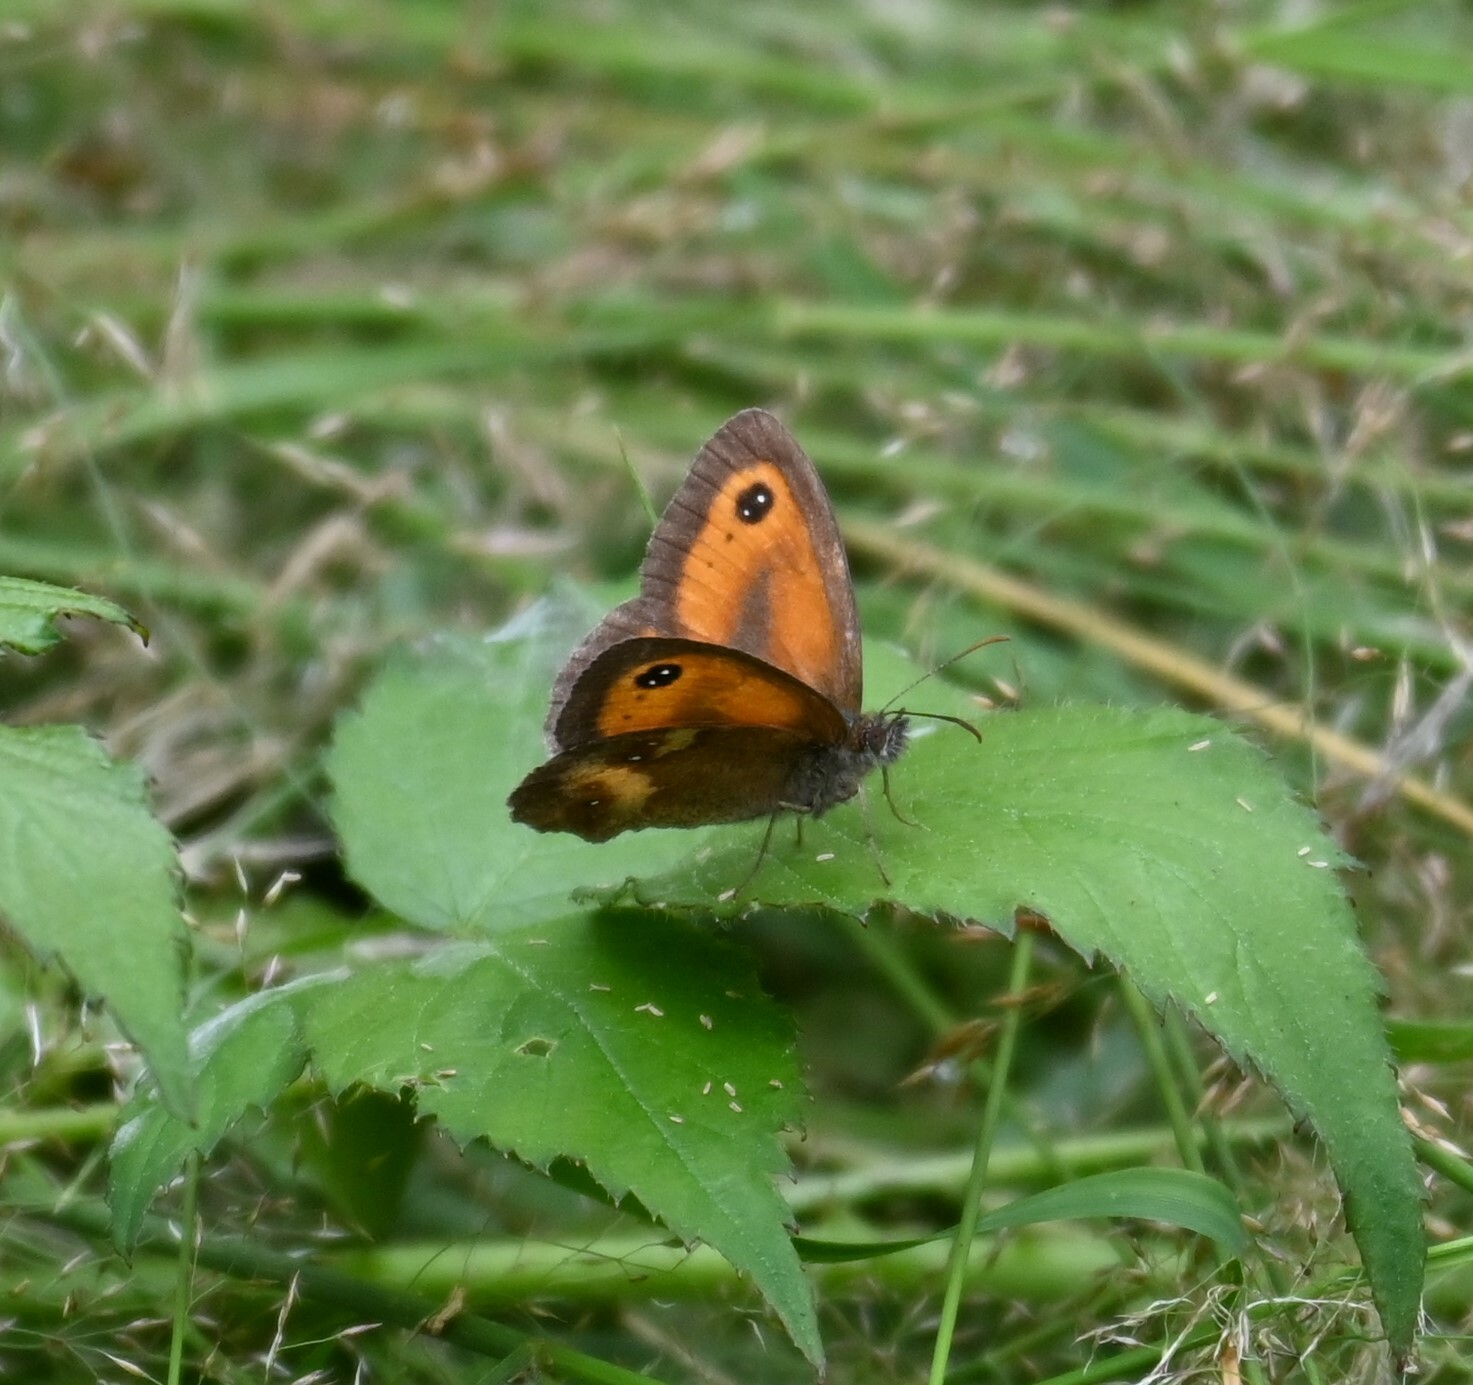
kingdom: Animalia
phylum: Arthropoda
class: Insecta
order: Lepidoptera
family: Nymphalidae
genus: Pyronia
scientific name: Pyronia tithonus
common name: Gatekeeper
